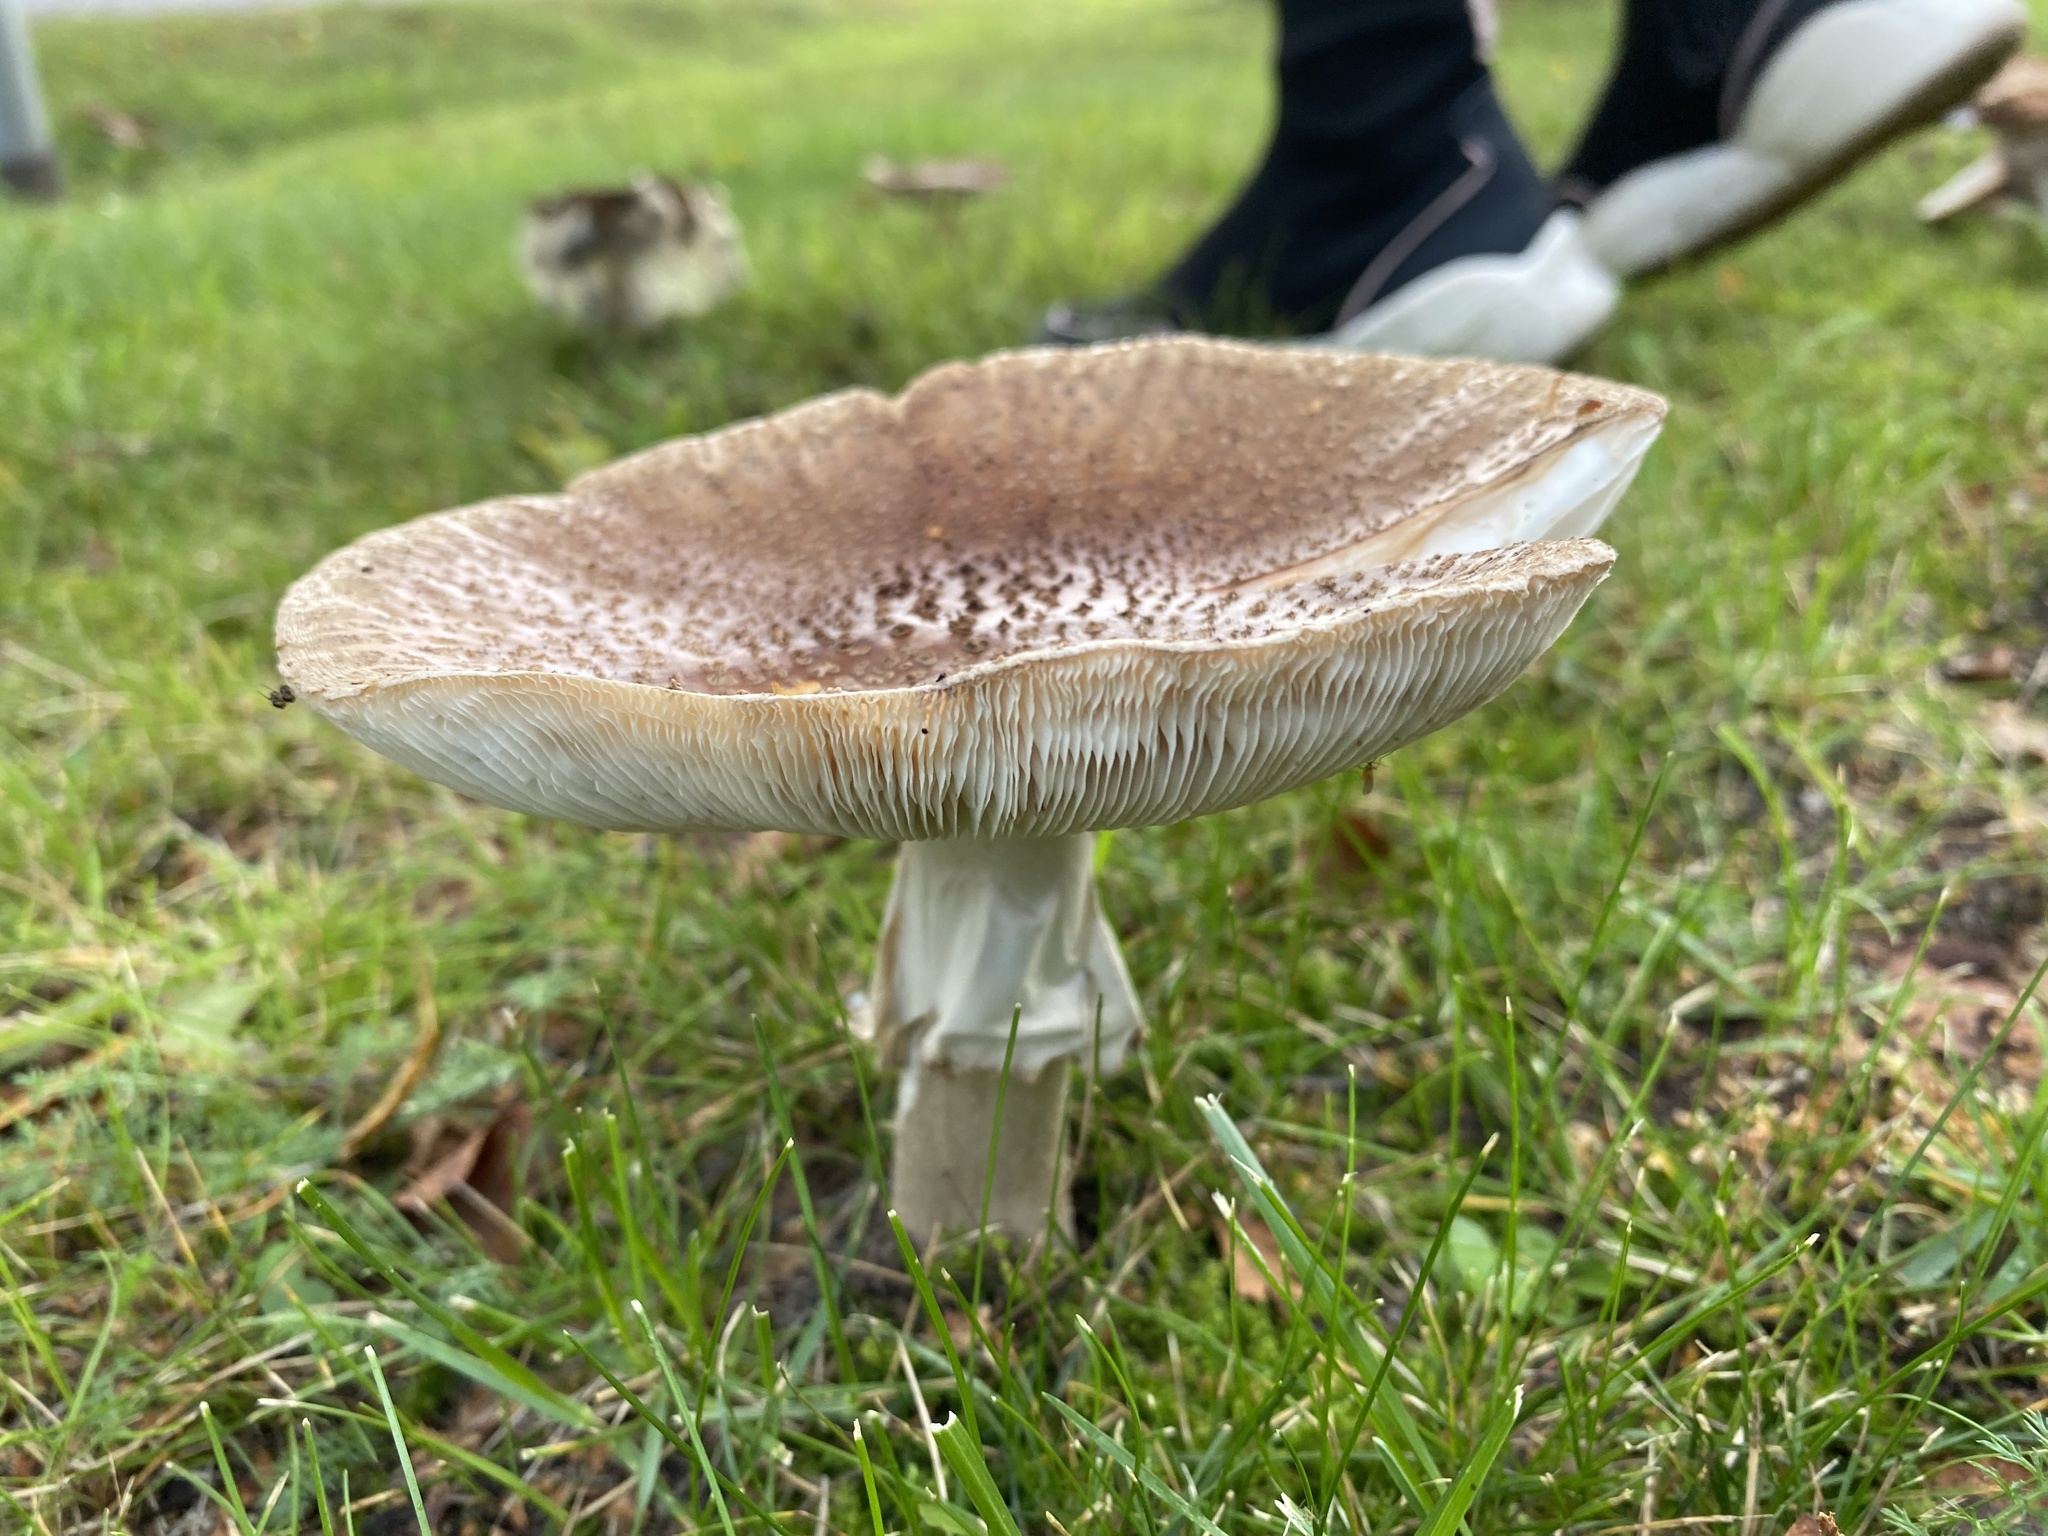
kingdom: Fungi
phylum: Basidiomycota
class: Agaricomycetes
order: Agaricales
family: Amanitaceae
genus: Amanita
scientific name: Amanita rubescens
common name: Blusher
